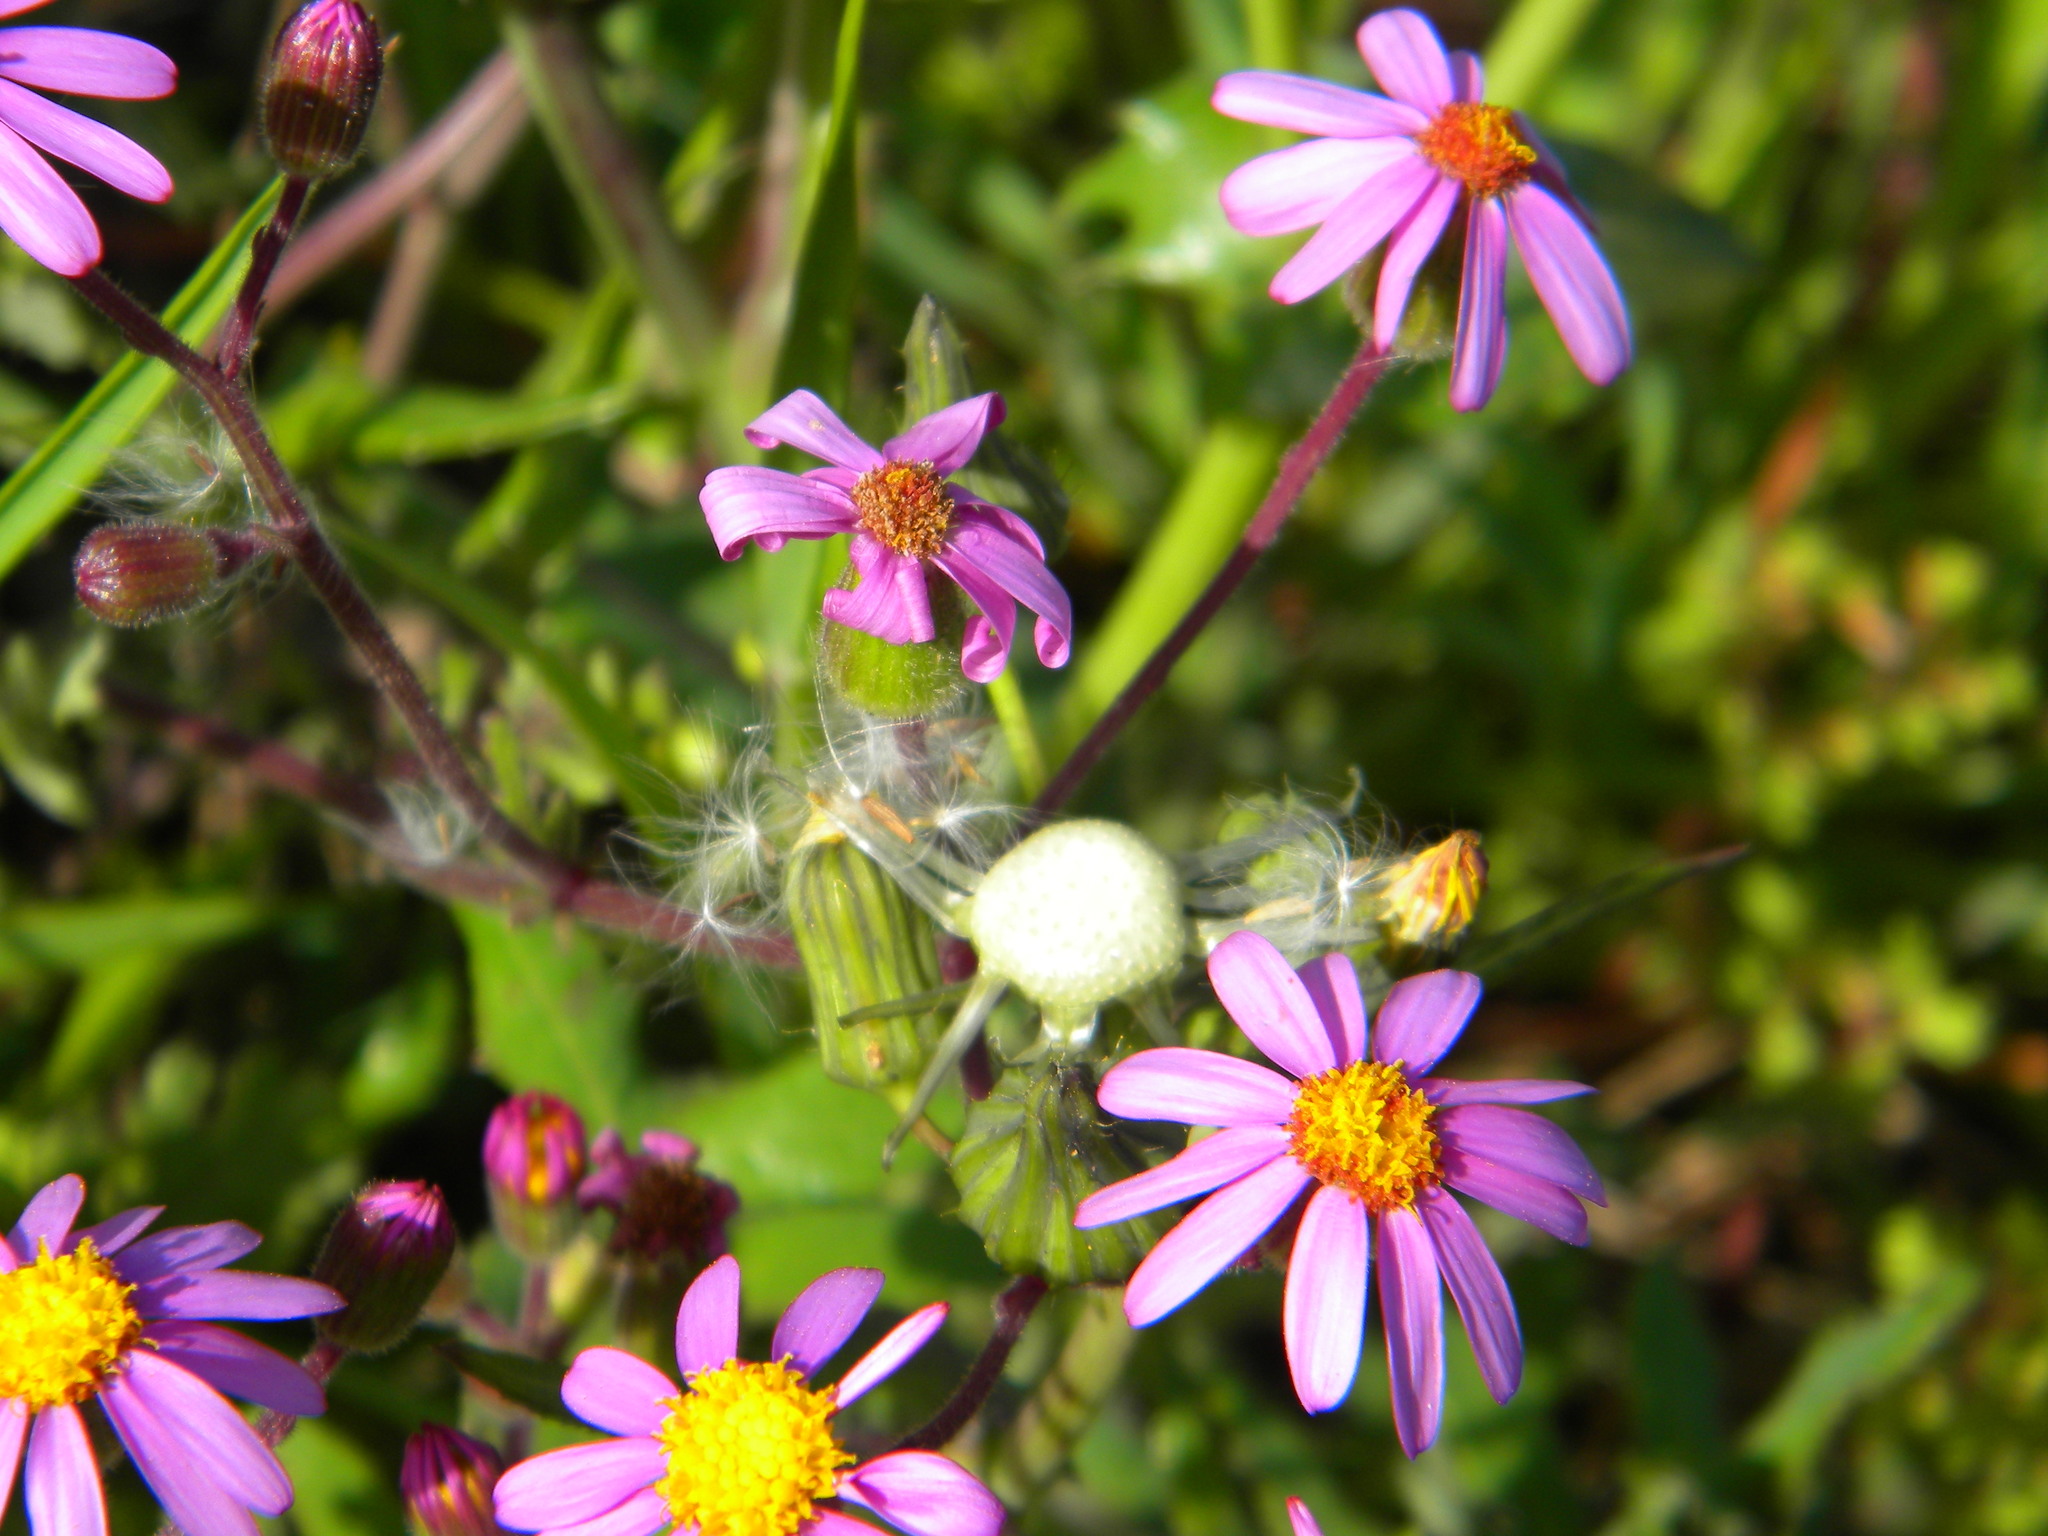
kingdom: Plantae
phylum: Tracheophyta
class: Magnoliopsida
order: Asterales
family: Asteraceae
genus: Senecio
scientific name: Senecio arenarius
